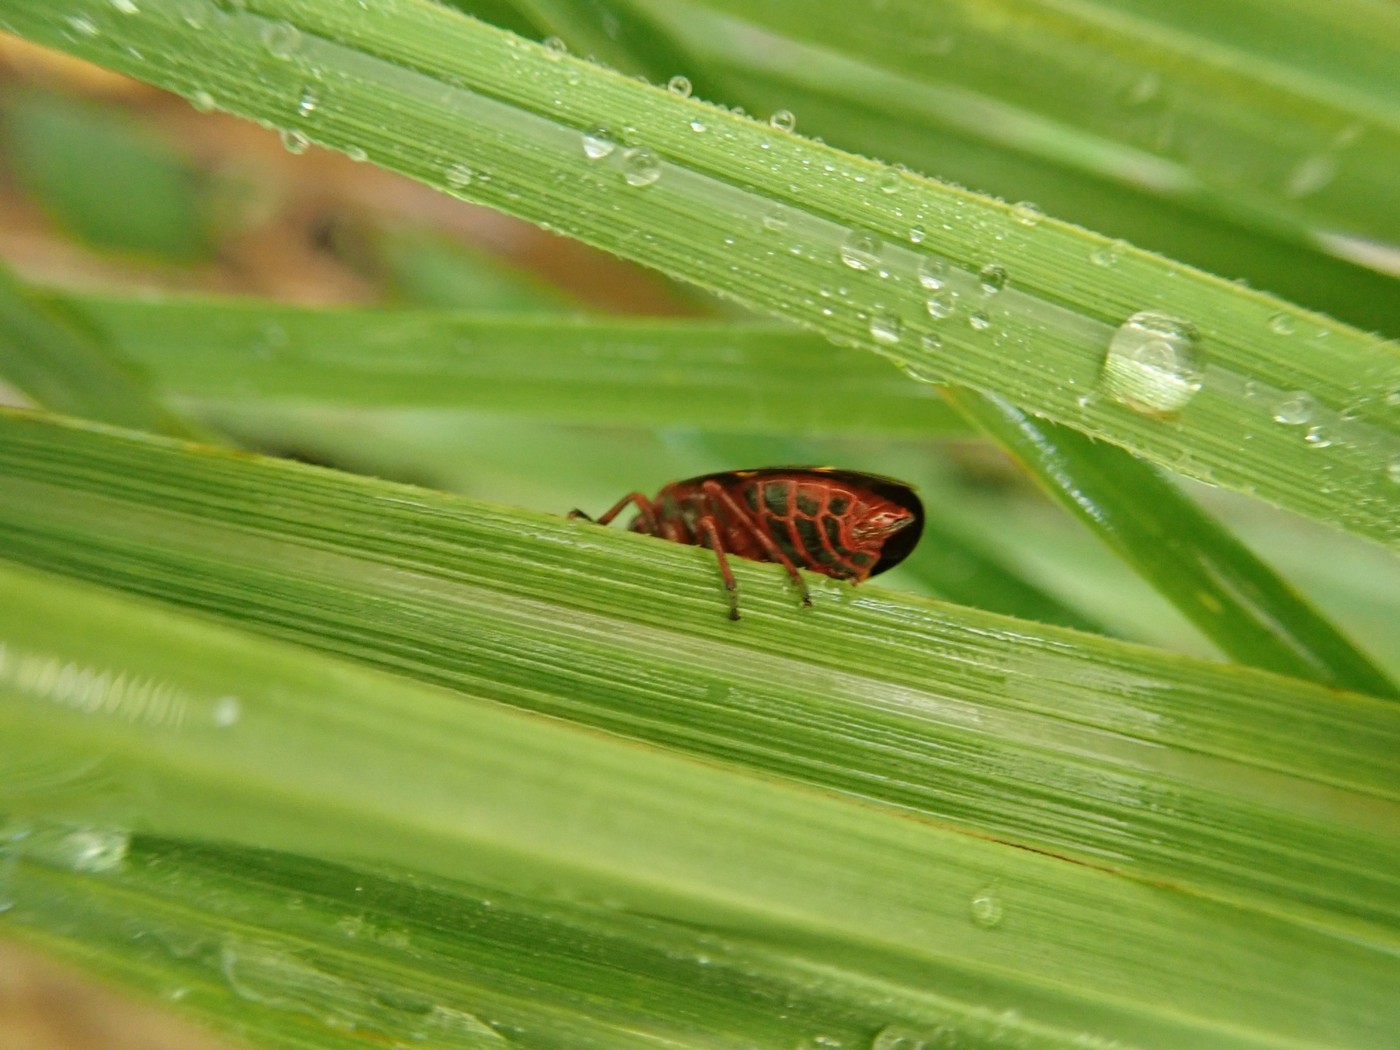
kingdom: Animalia
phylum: Arthropoda
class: Insecta
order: Hemiptera
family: Cercopidae
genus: Prosapia
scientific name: Prosapia bicincta
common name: Twolined spittlebug
